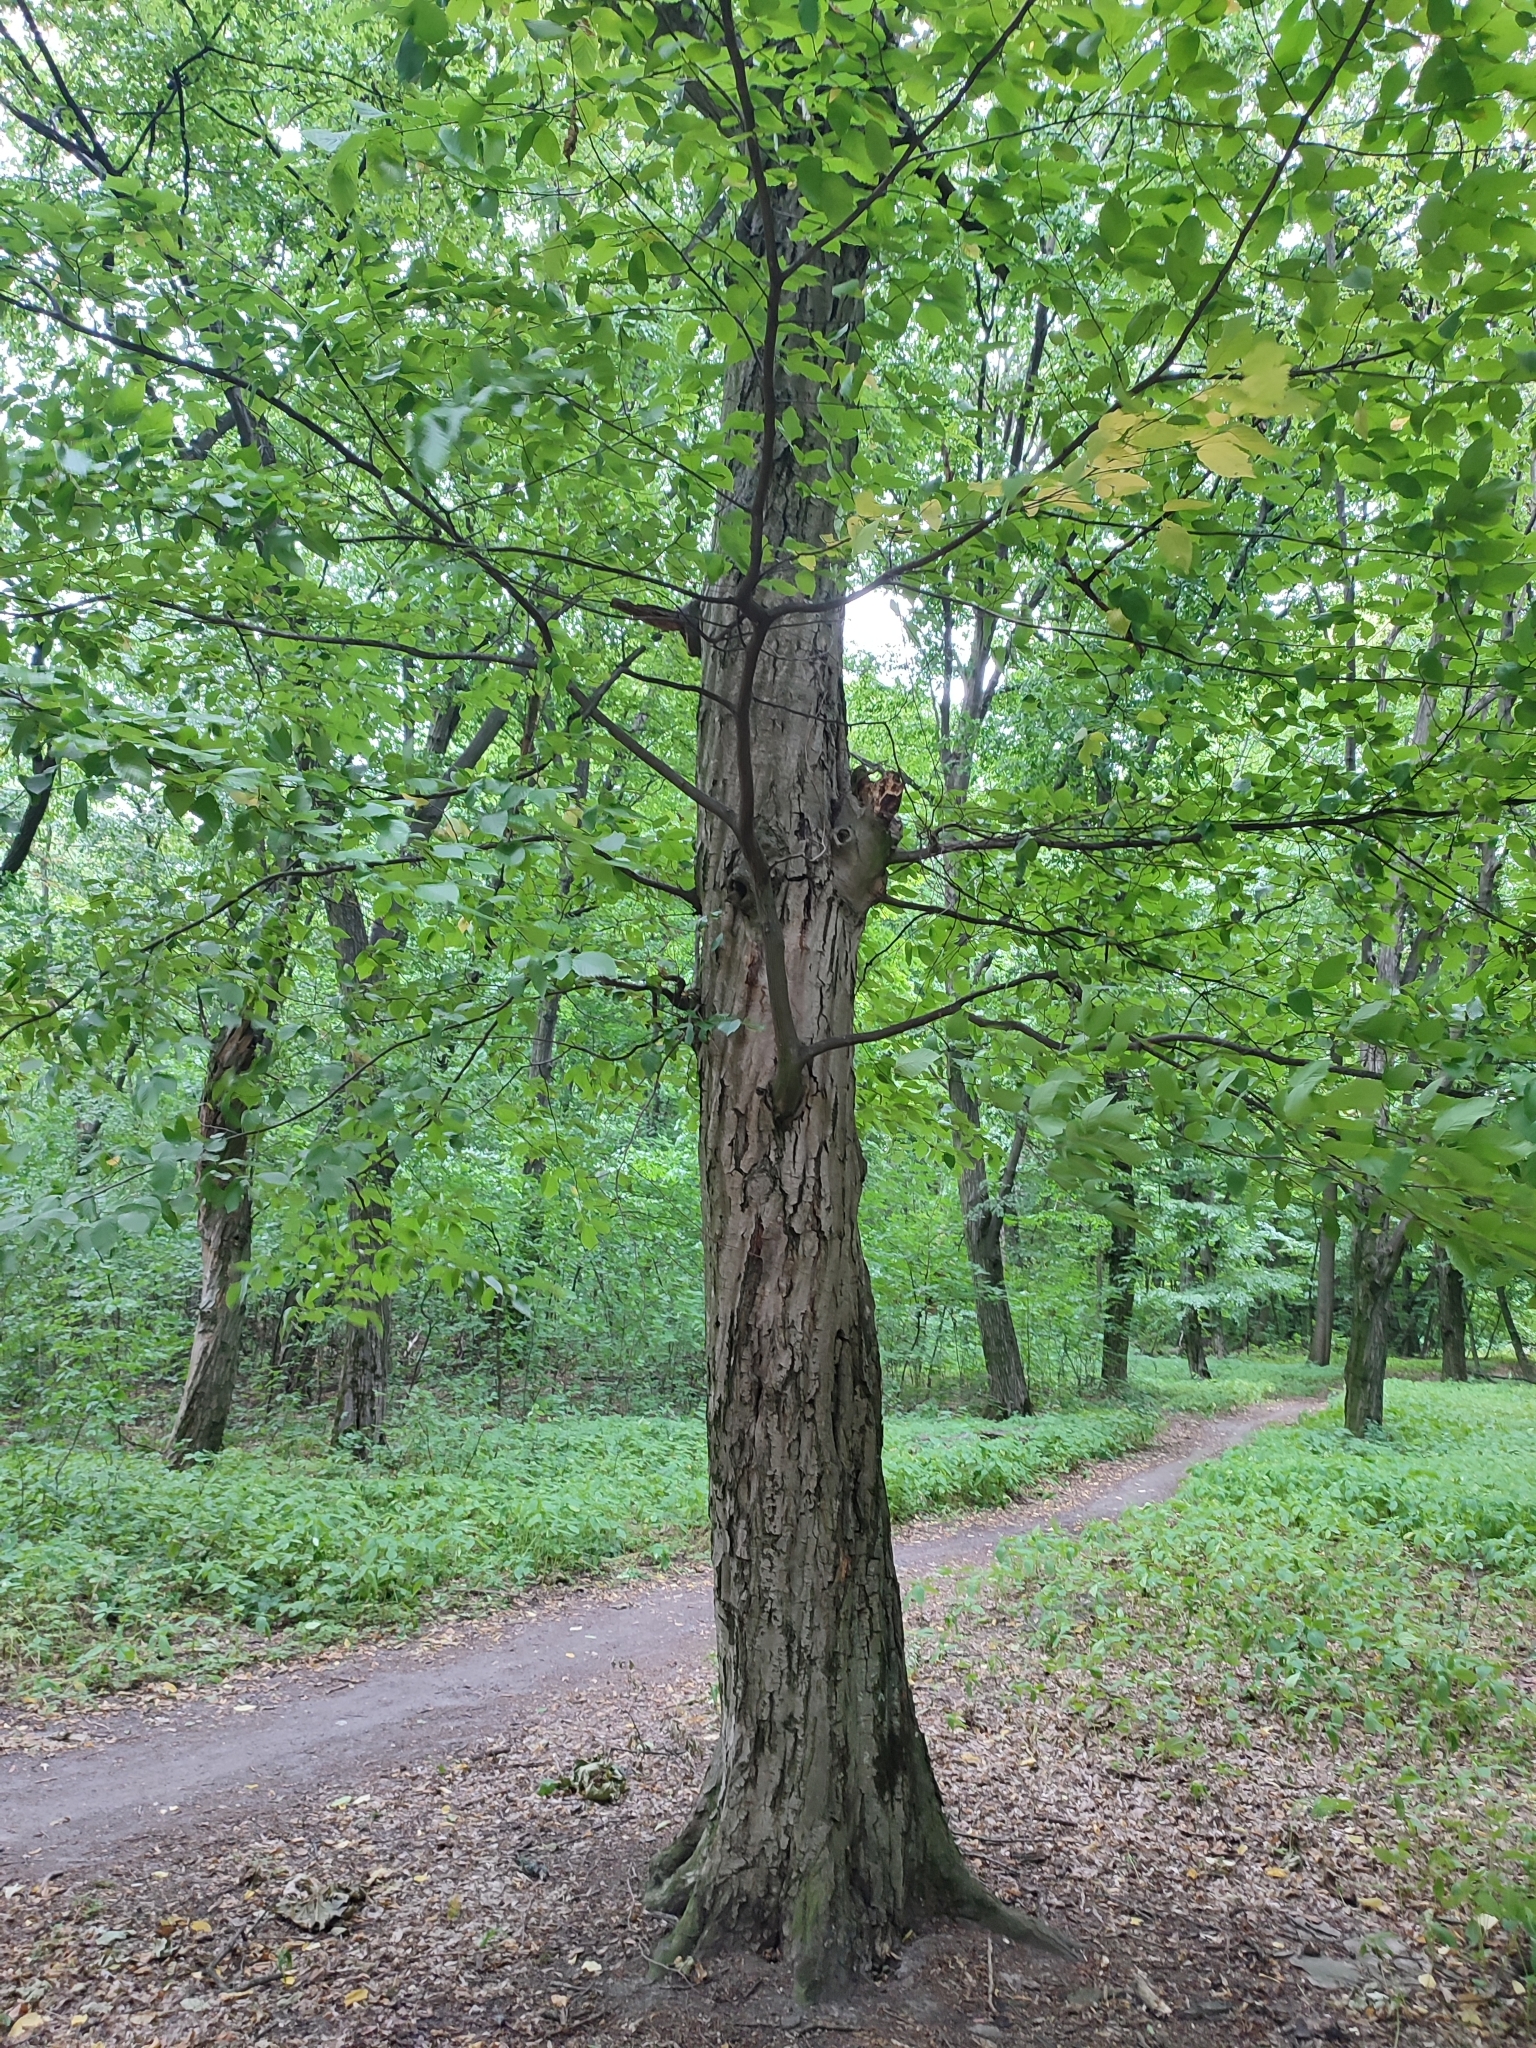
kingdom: Plantae
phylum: Tracheophyta
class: Magnoliopsida
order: Fagales
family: Betulaceae
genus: Carpinus
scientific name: Carpinus betulus
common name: Hornbeam
